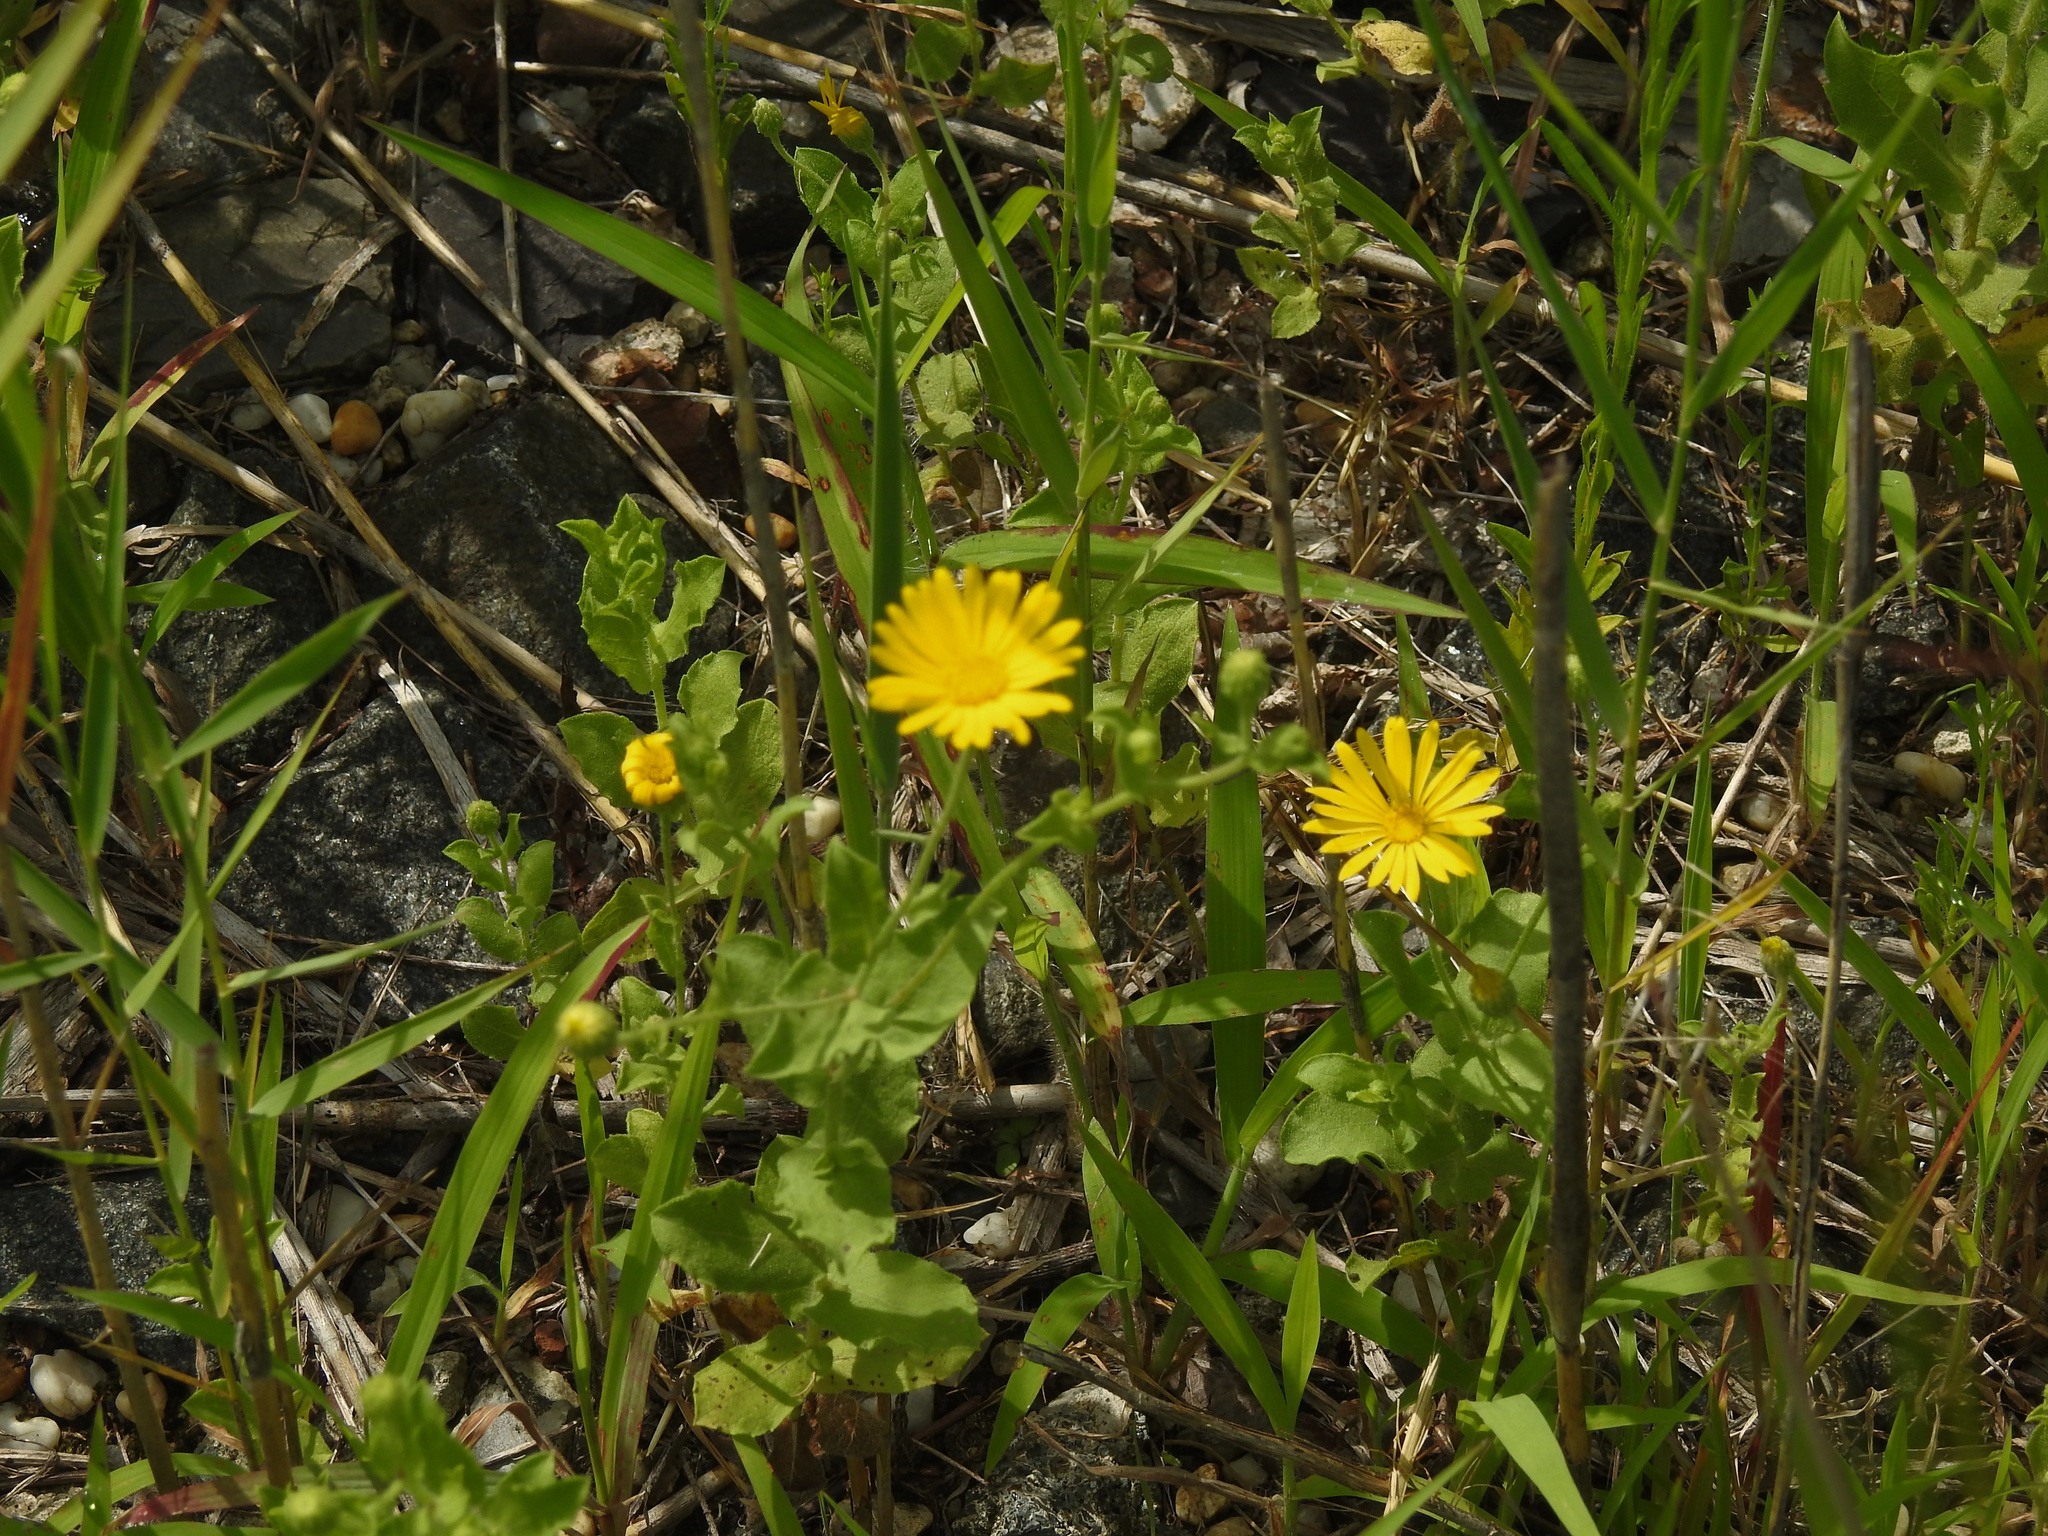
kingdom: Plantae
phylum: Tracheophyta
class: Magnoliopsida
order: Asterales
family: Asteraceae
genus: Heterotheca
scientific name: Heterotheca subaxillaris
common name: Camphorweed
